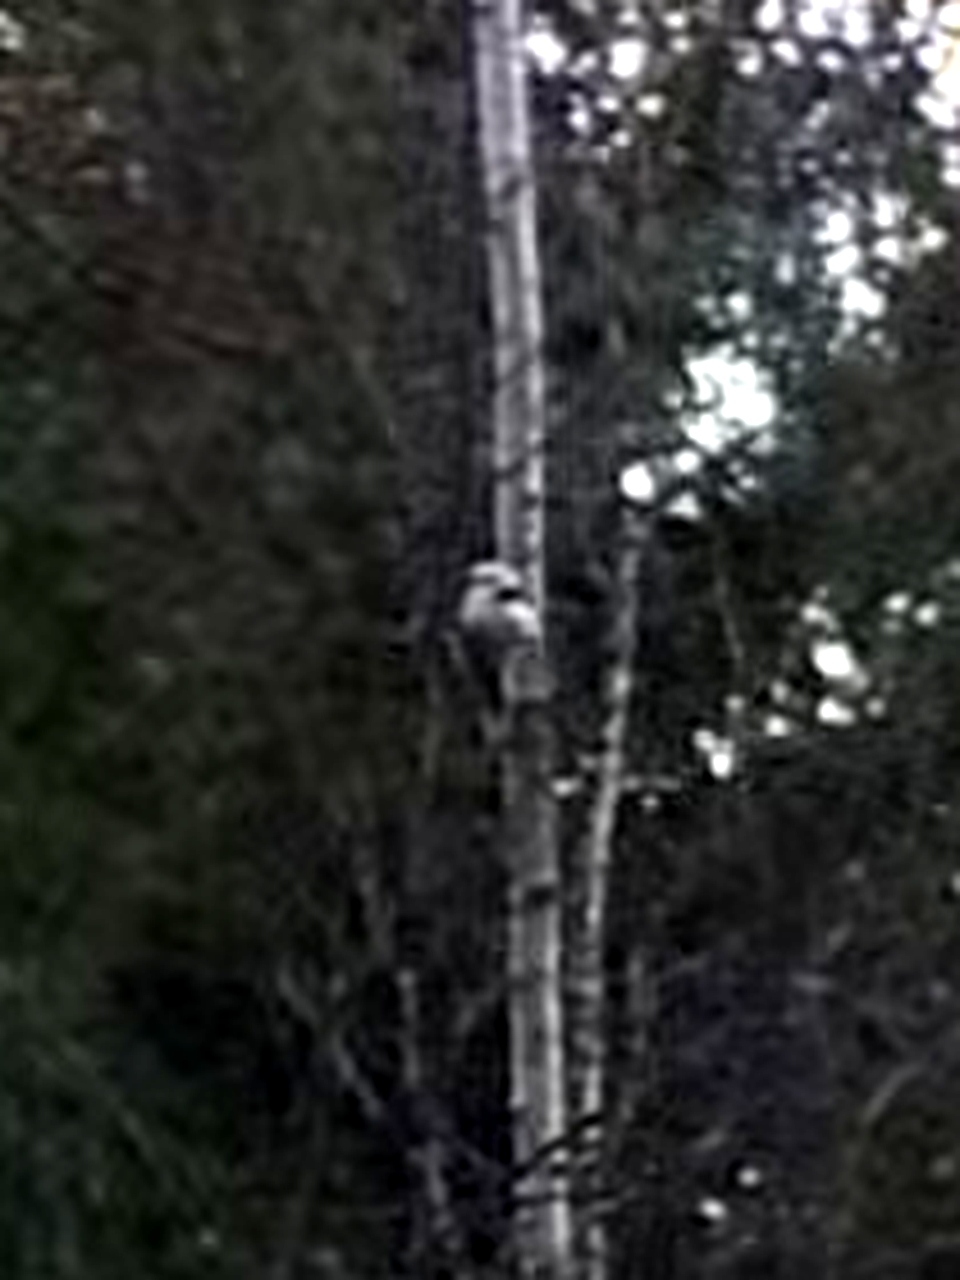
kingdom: Animalia
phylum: Chordata
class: Aves
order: Passeriformes
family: Aegithalidae
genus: Aegithalos
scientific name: Aegithalos caudatus
